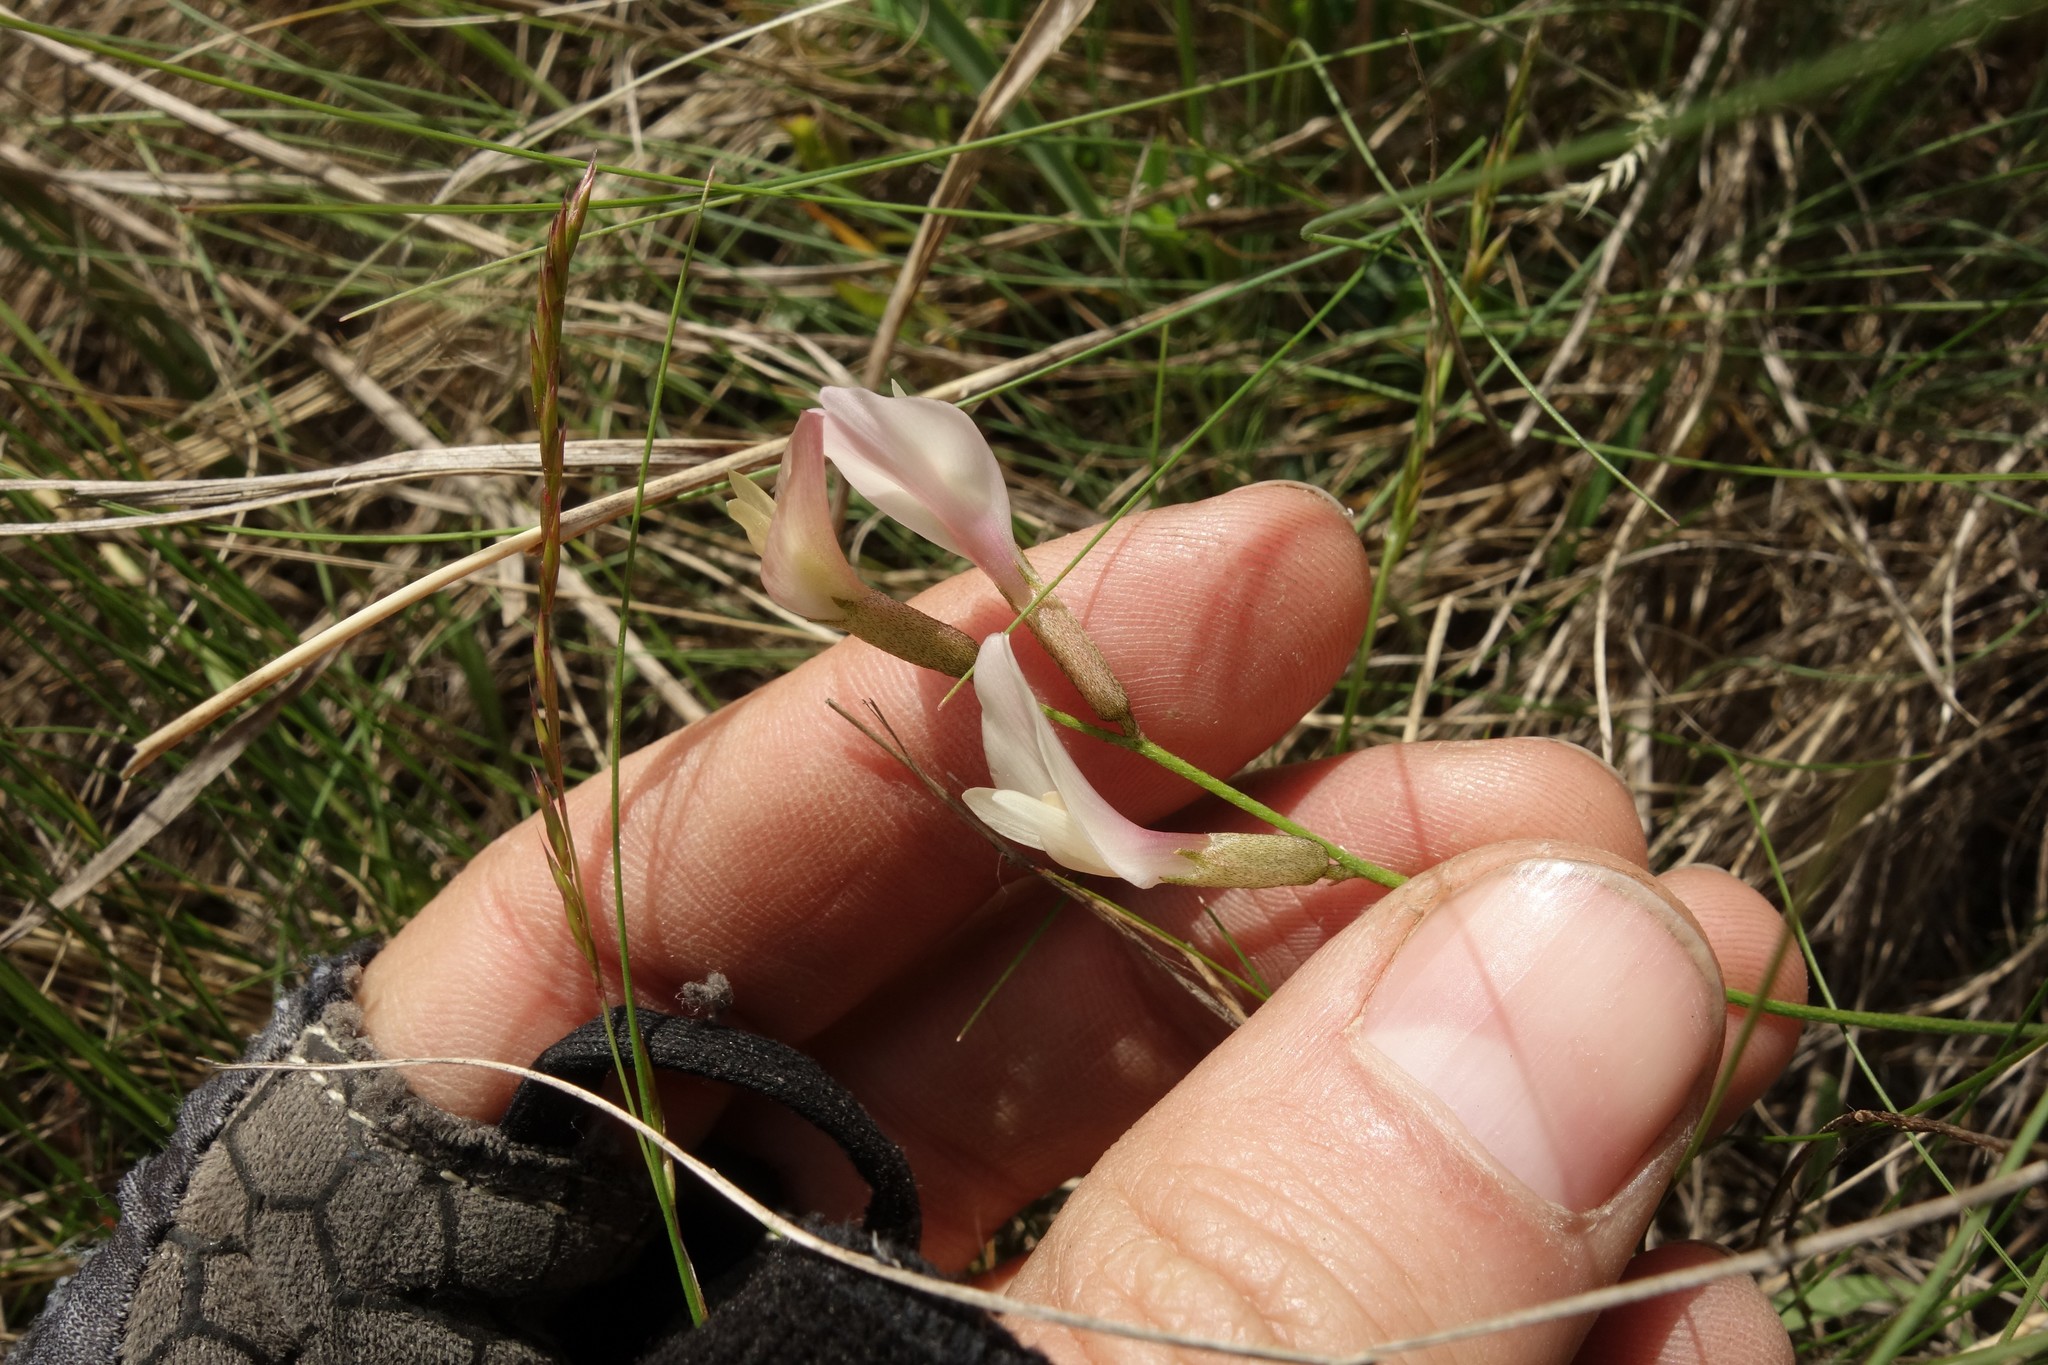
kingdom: Plantae
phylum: Tracheophyta
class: Magnoliopsida
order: Fabales
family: Fabaceae
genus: Astragalus
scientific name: Astragalus ucrainicus
